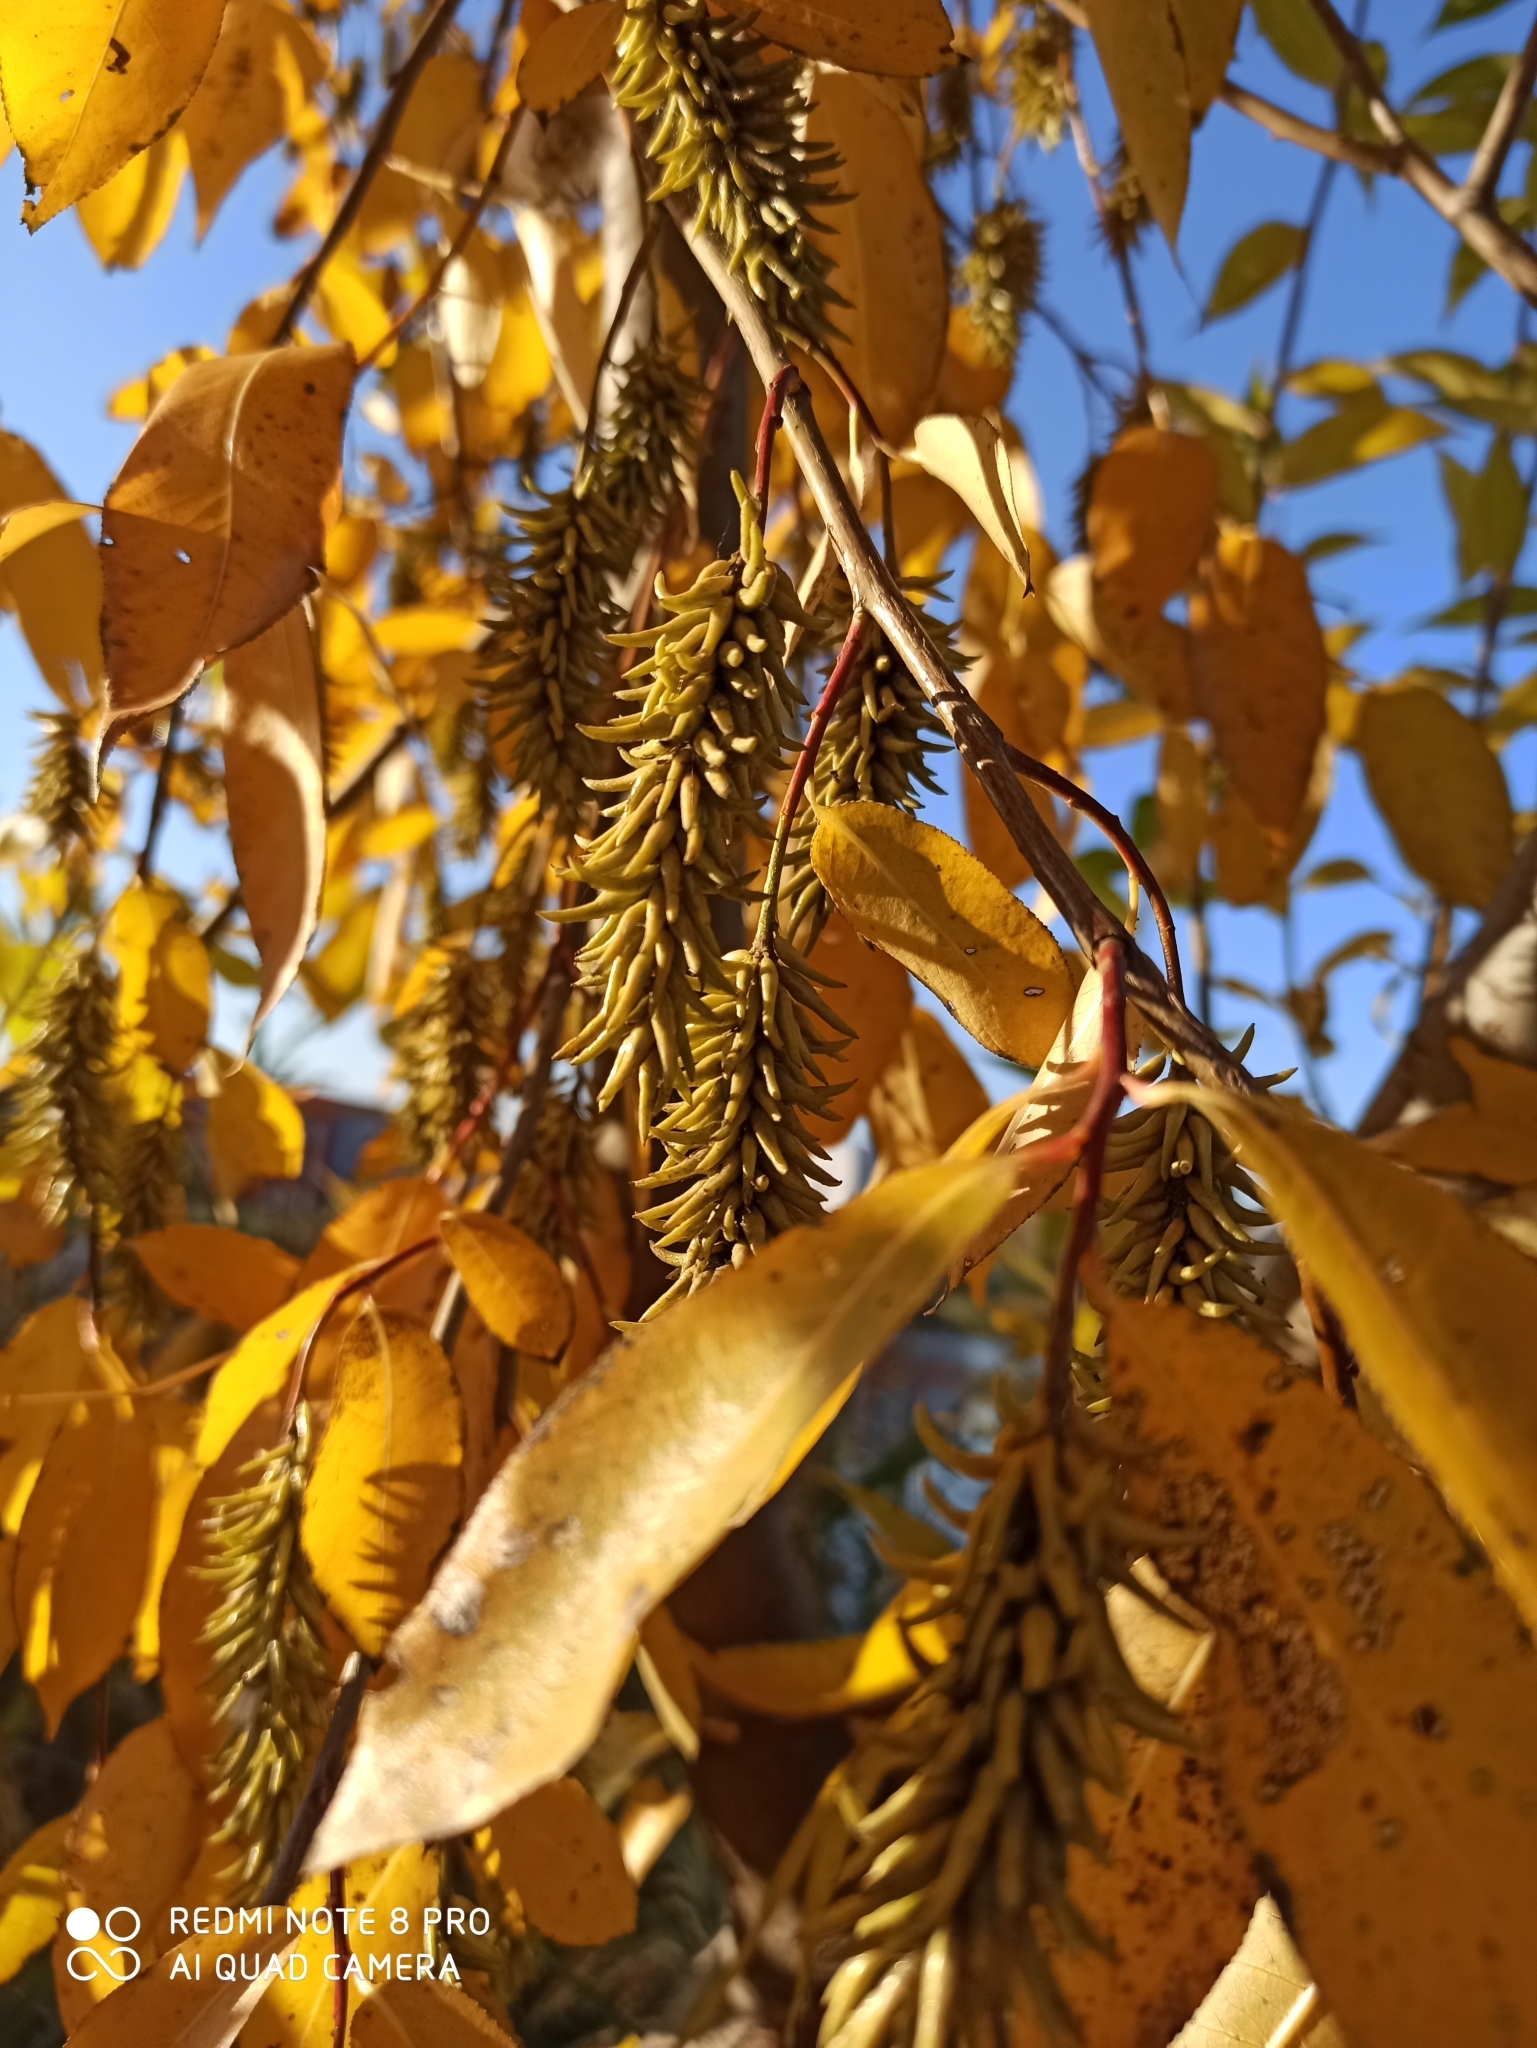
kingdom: Plantae
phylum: Tracheophyta
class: Magnoliopsida
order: Malpighiales
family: Salicaceae
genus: Salix
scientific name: Salix pentandra
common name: Bay willow
